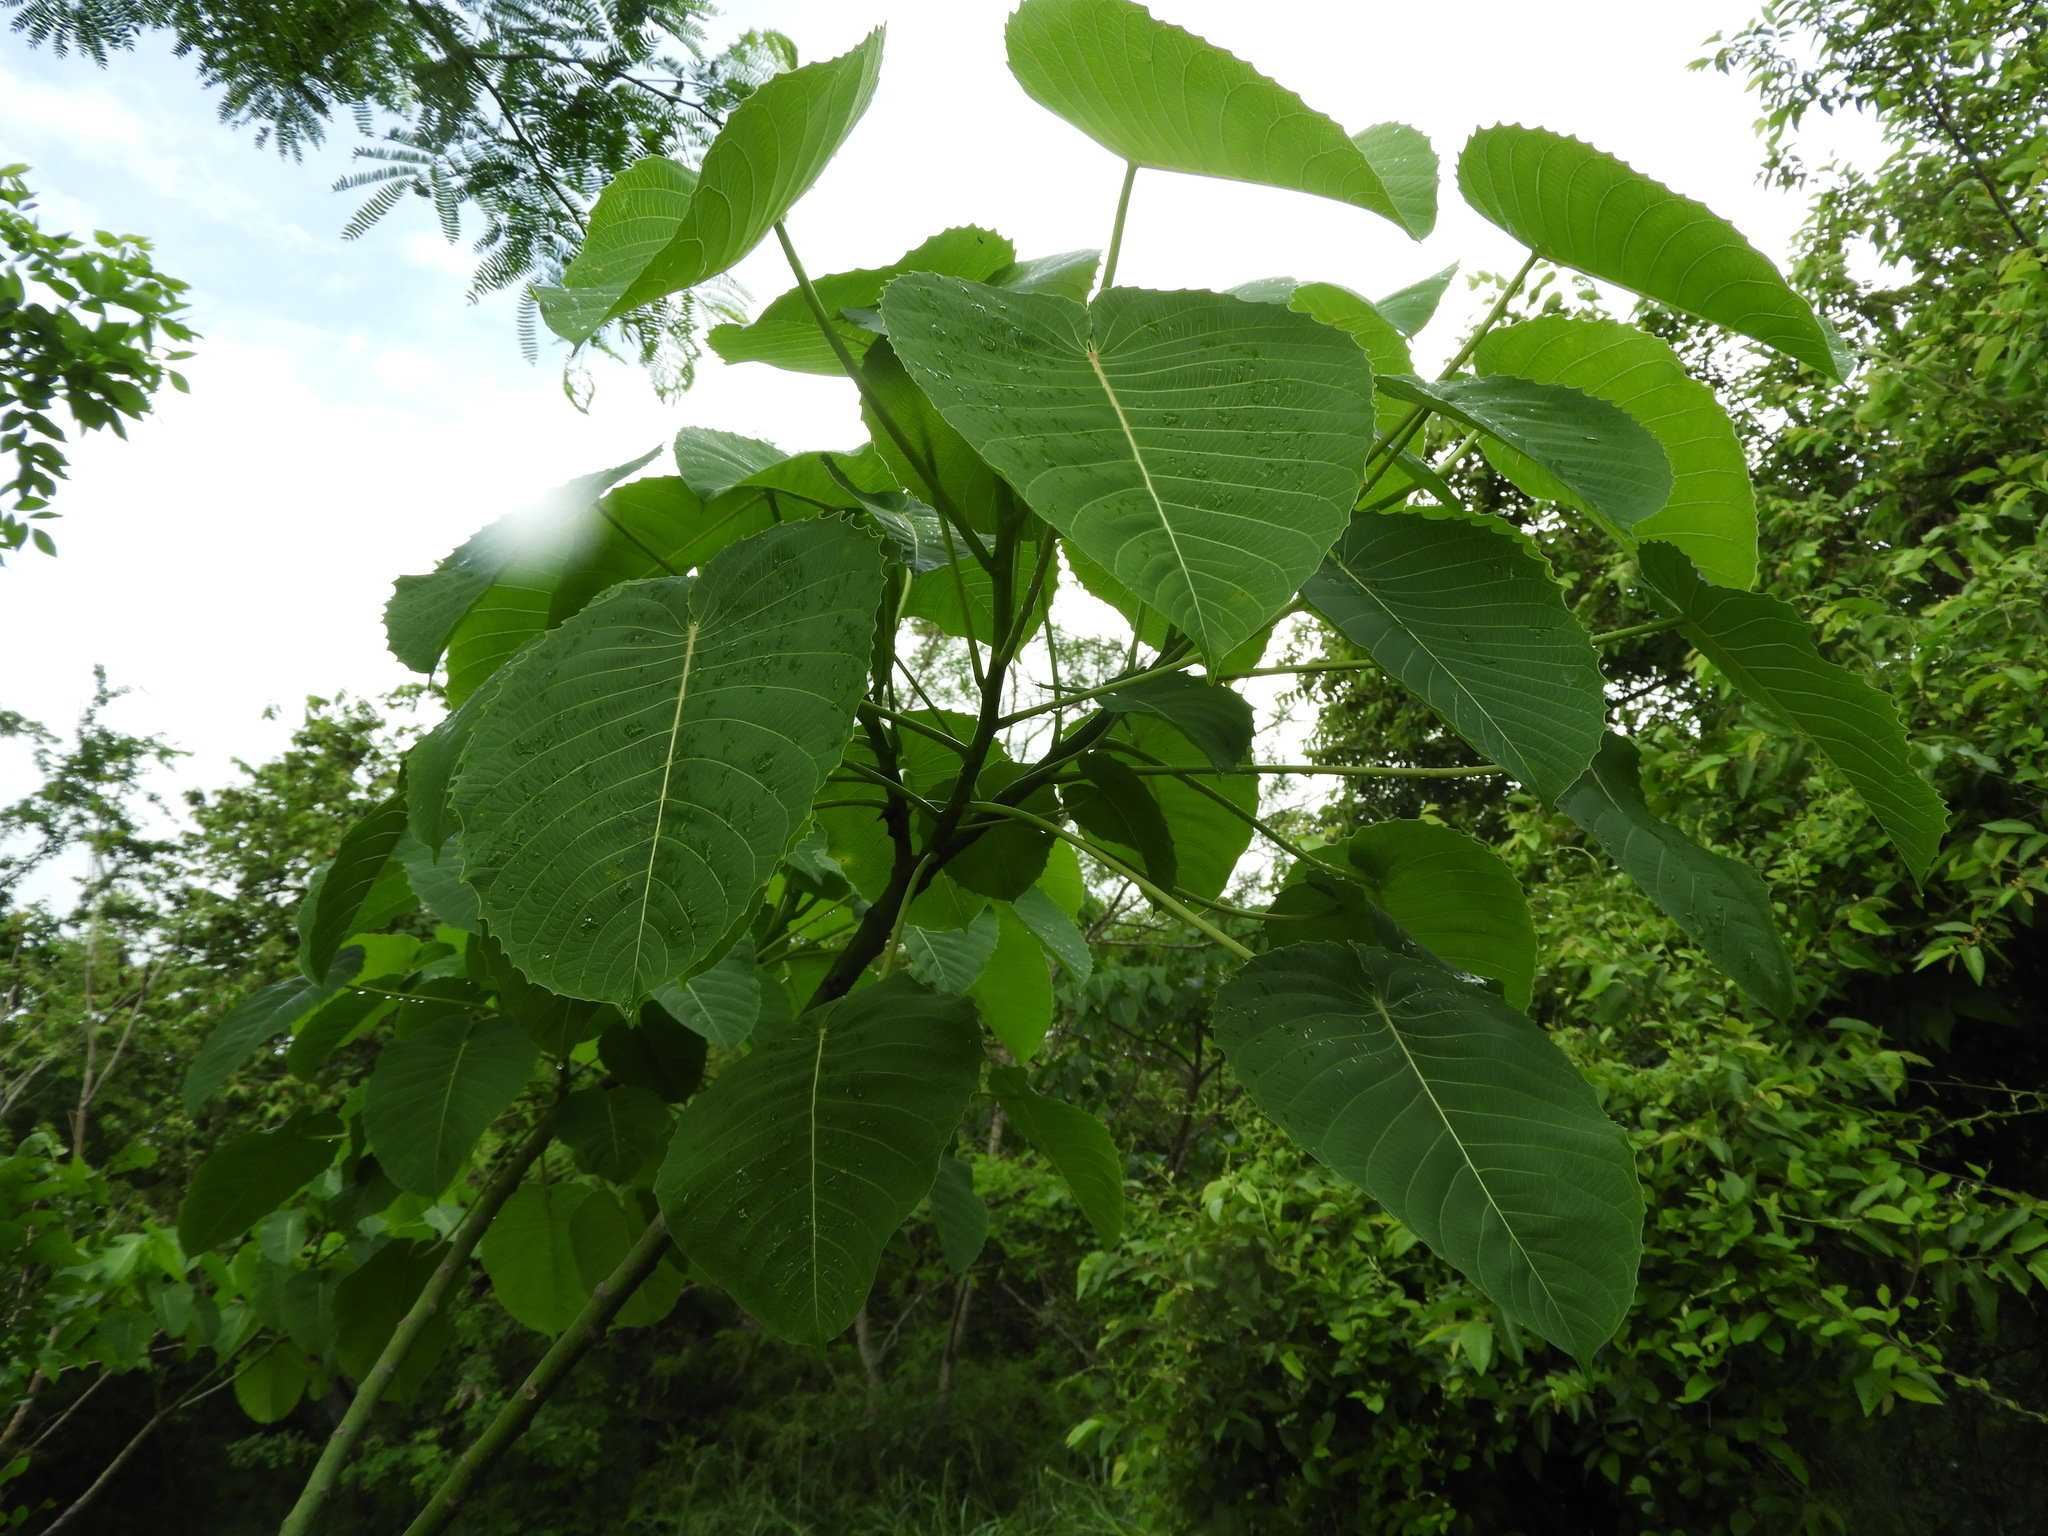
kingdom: Plantae
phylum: Tracheophyta
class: Magnoliopsida
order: Malpighiales
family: Euphorbiaceae
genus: Hura
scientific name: Hura polyandra
